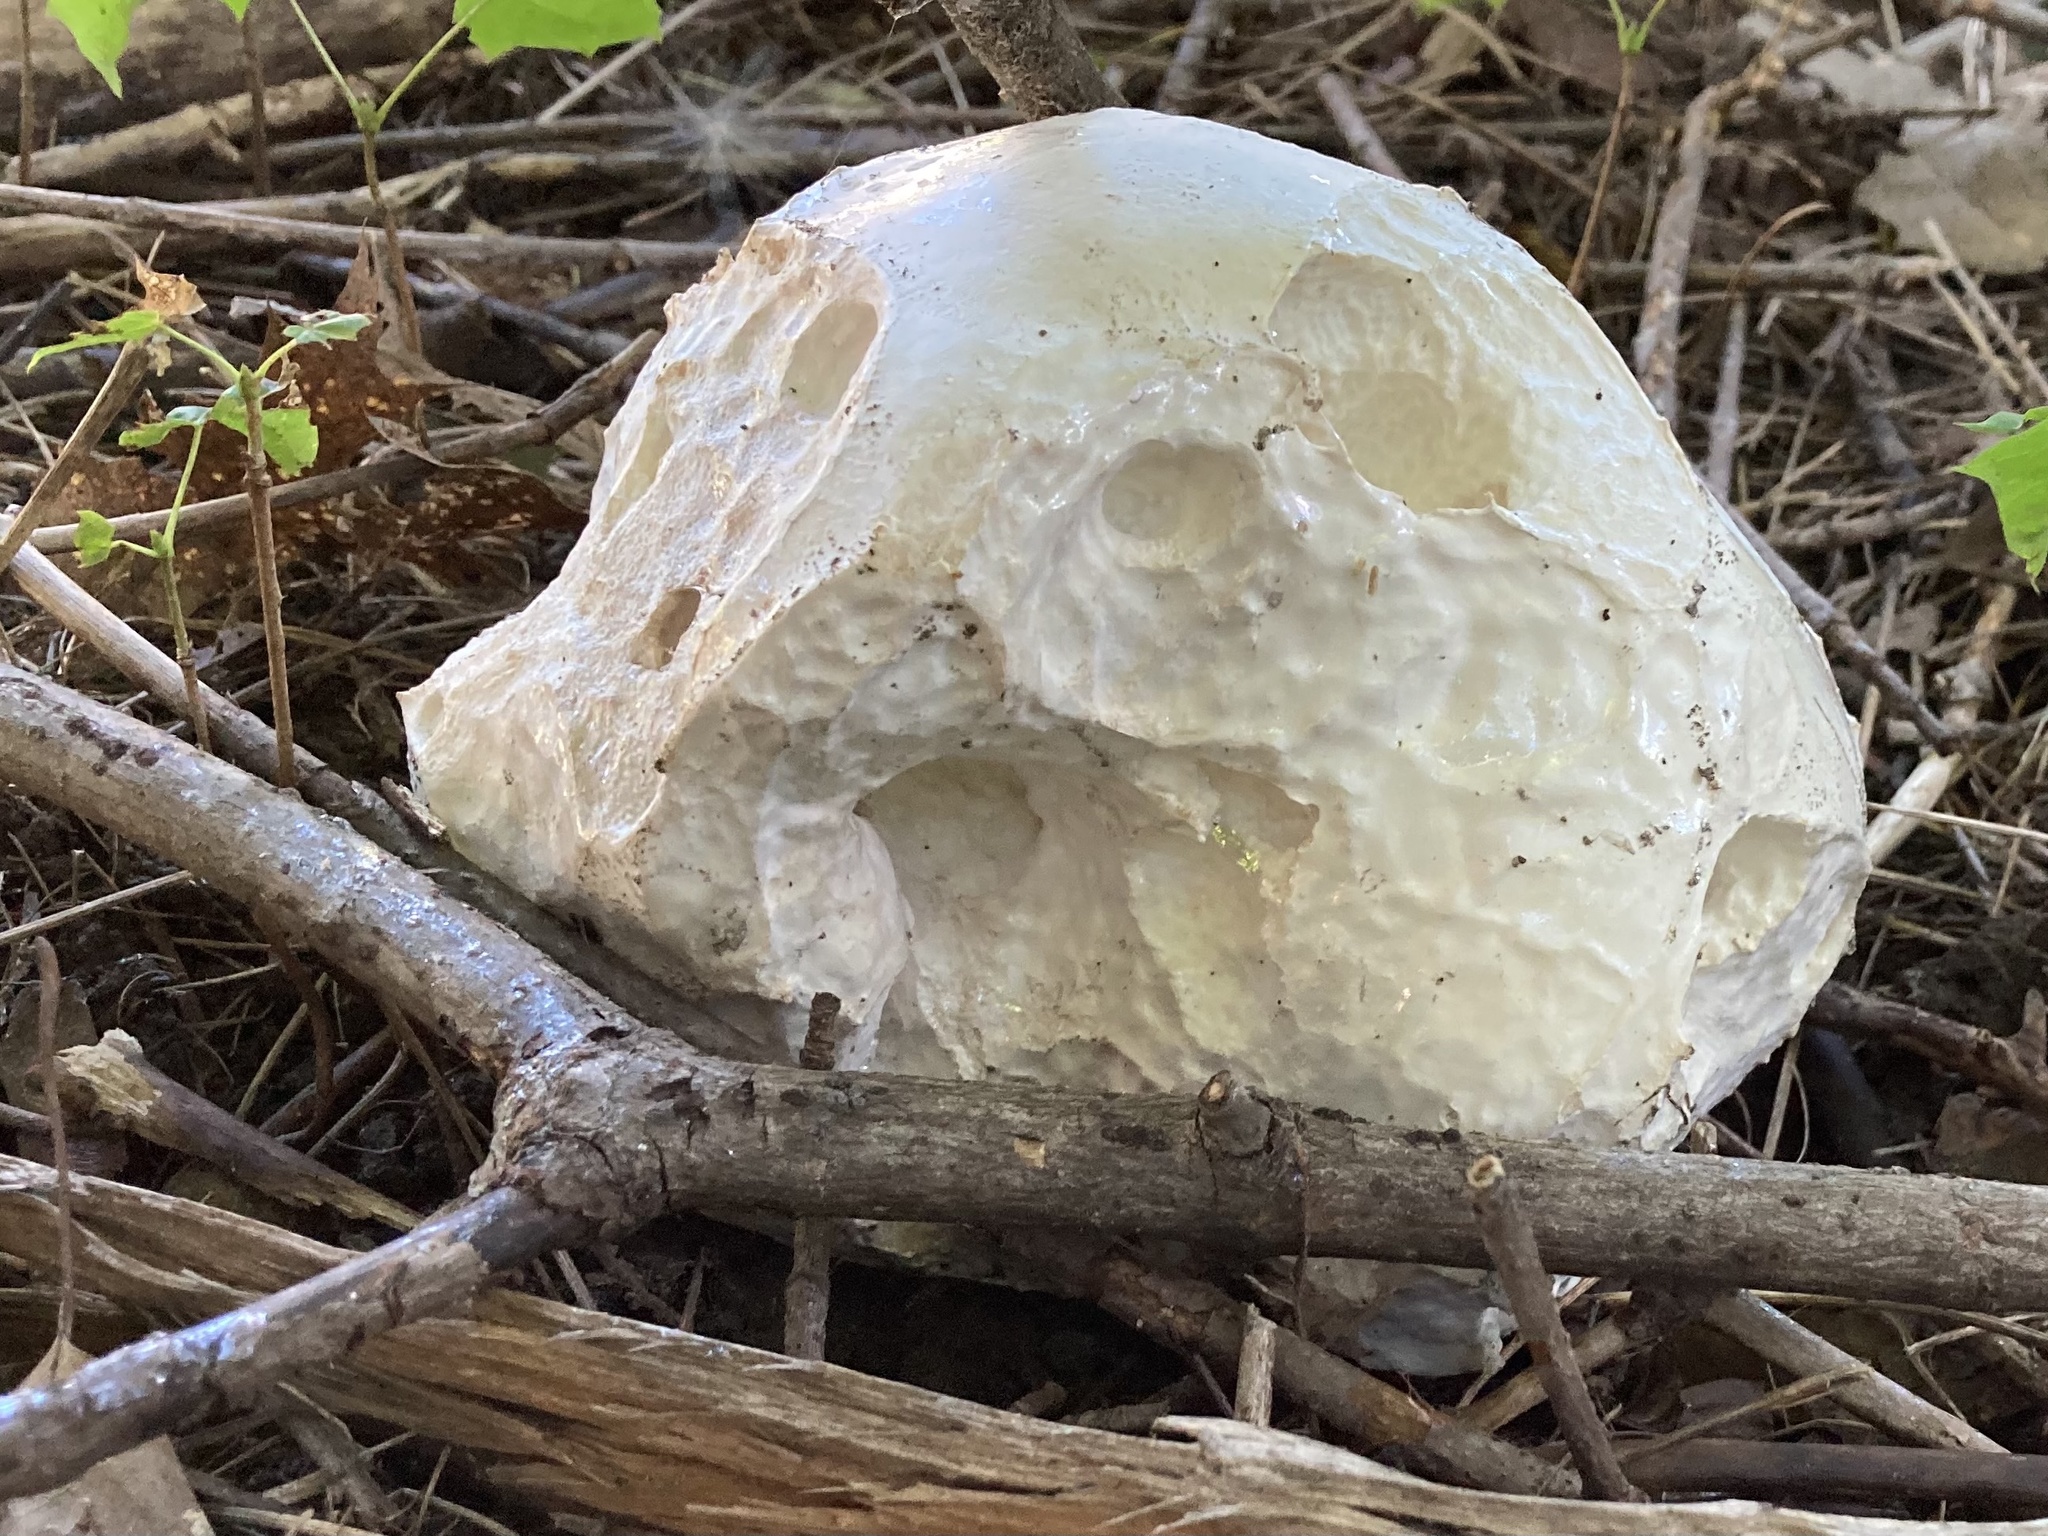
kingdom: Fungi
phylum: Basidiomycota
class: Agaricomycetes
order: Agaricales
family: Lycoperdaceae
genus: Calvatia
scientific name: Calvatia gigantea
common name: Giant puffball
